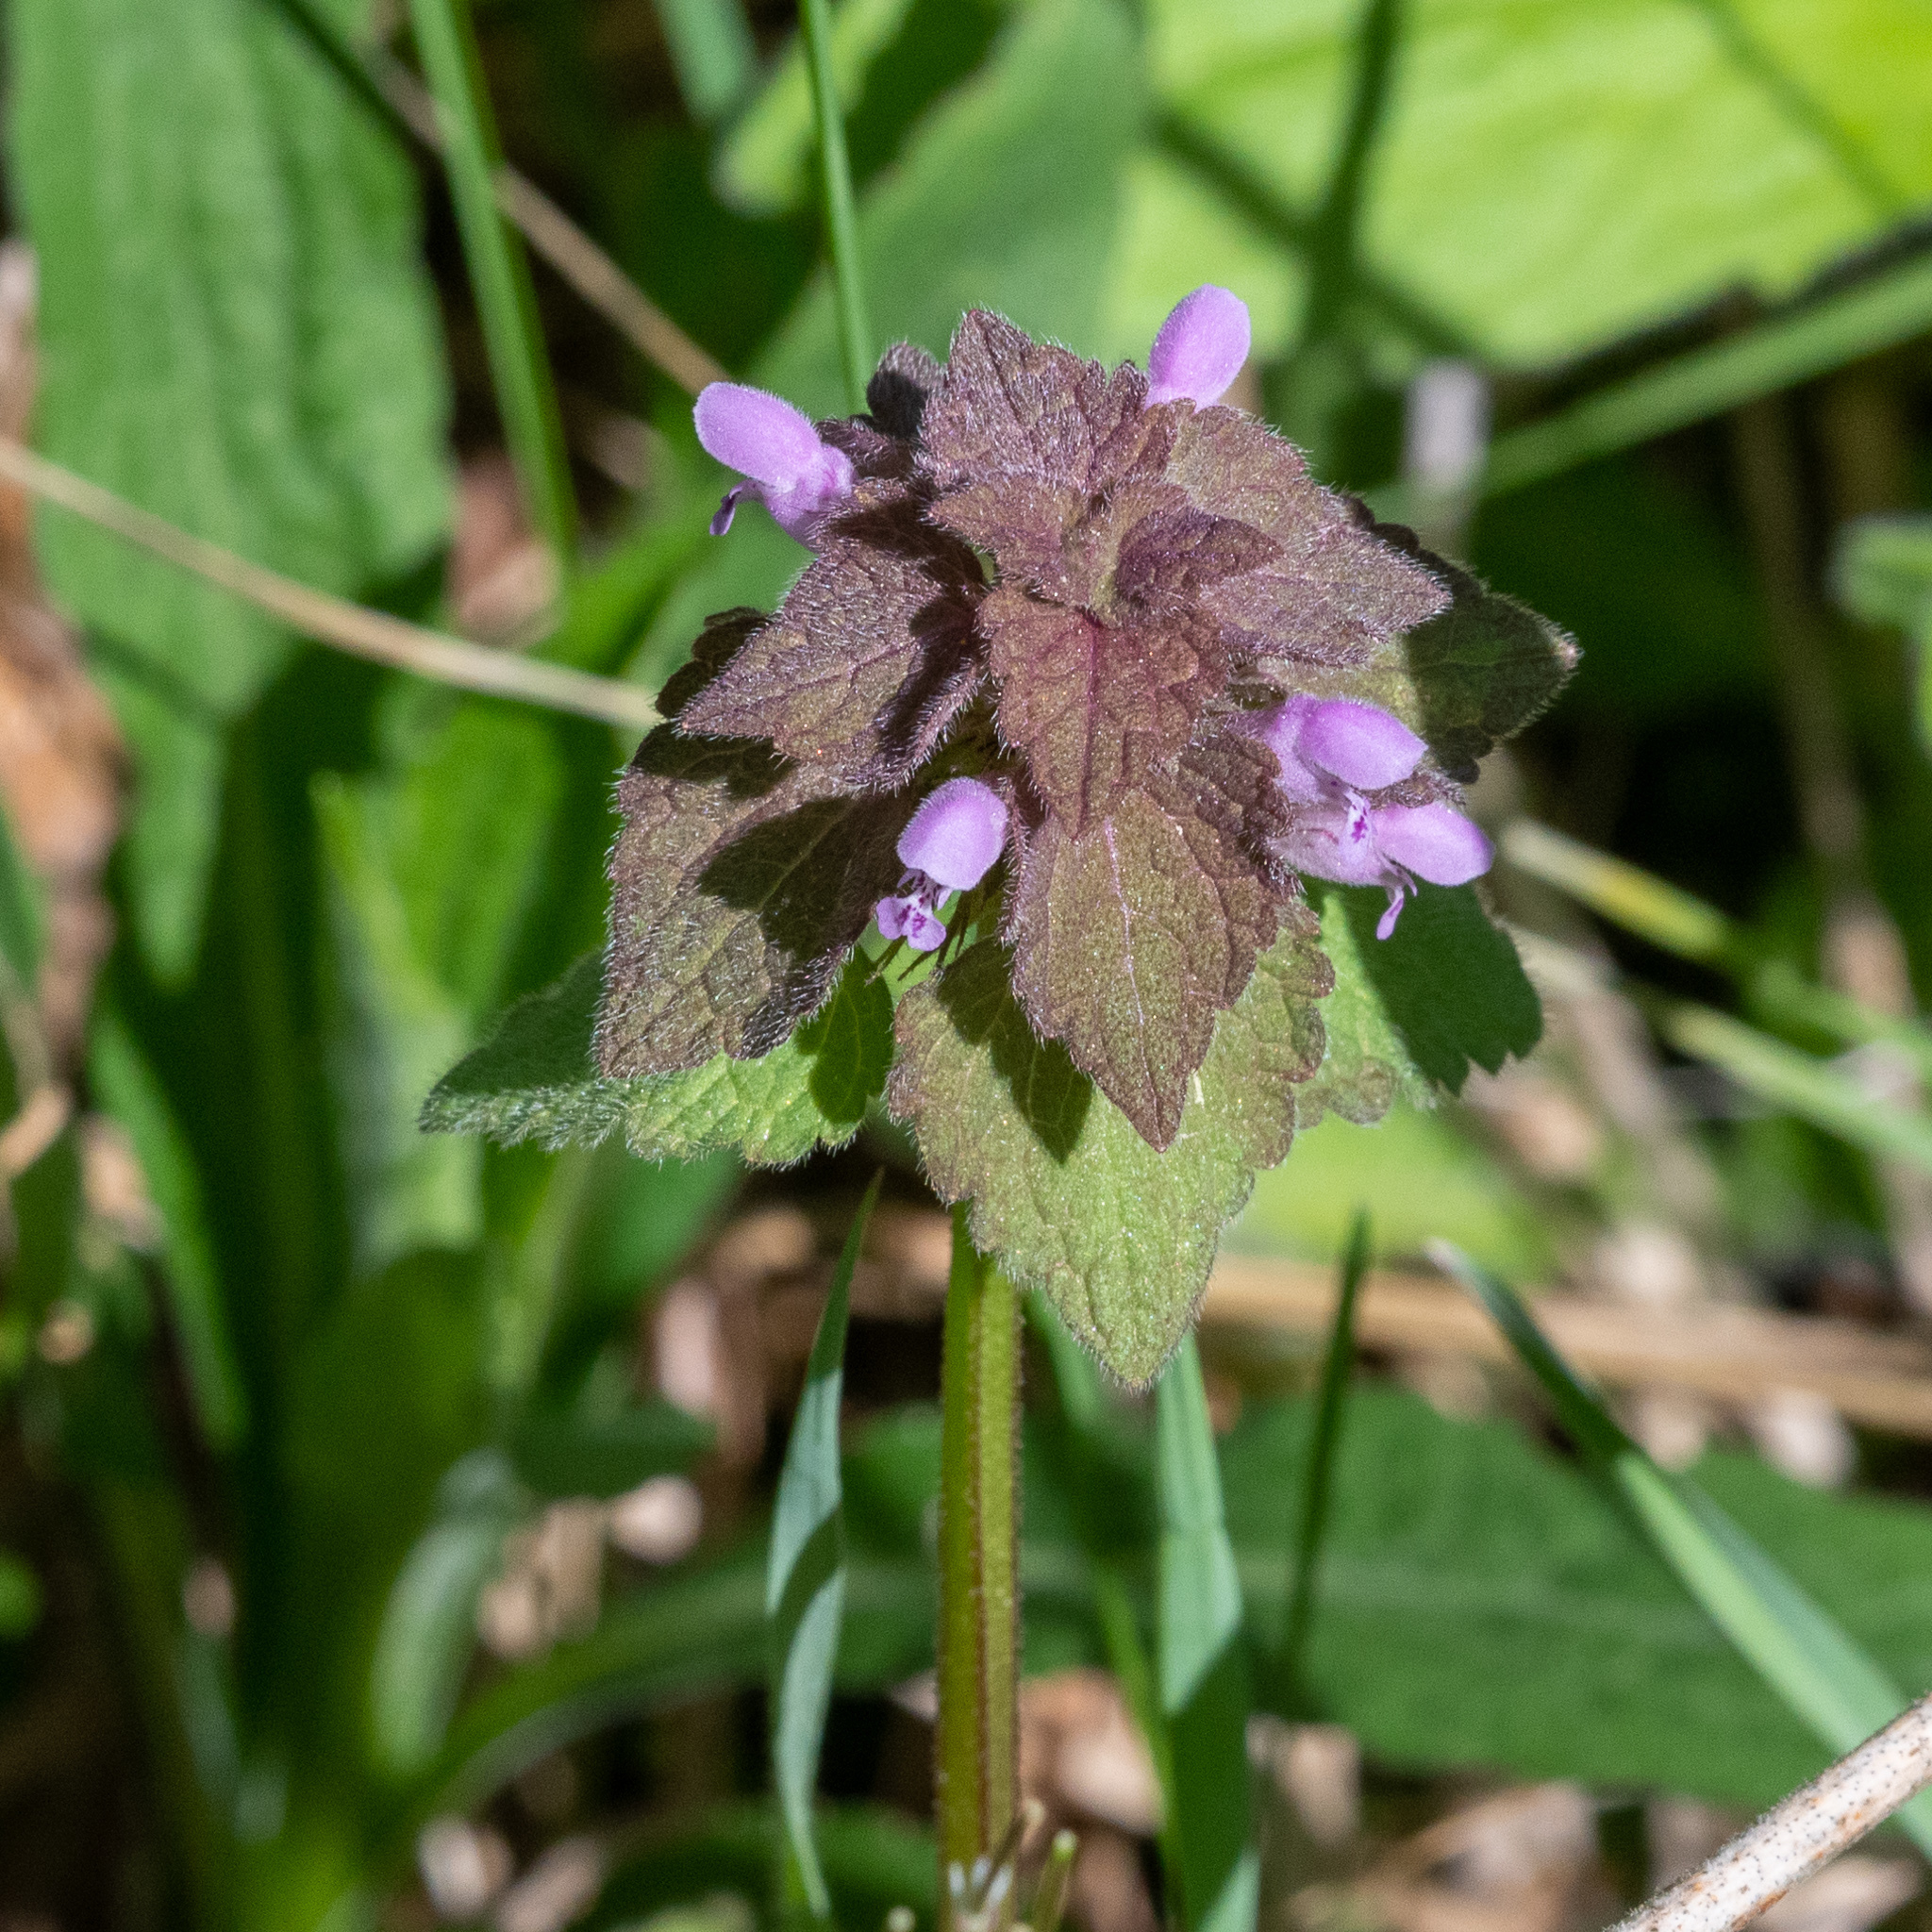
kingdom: Plantae
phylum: Tracheophyta
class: Magnoliopsida
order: Lamiales
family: Lamiaceae
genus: Lamium
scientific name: Lamium purpureum
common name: Red dead-nettle
